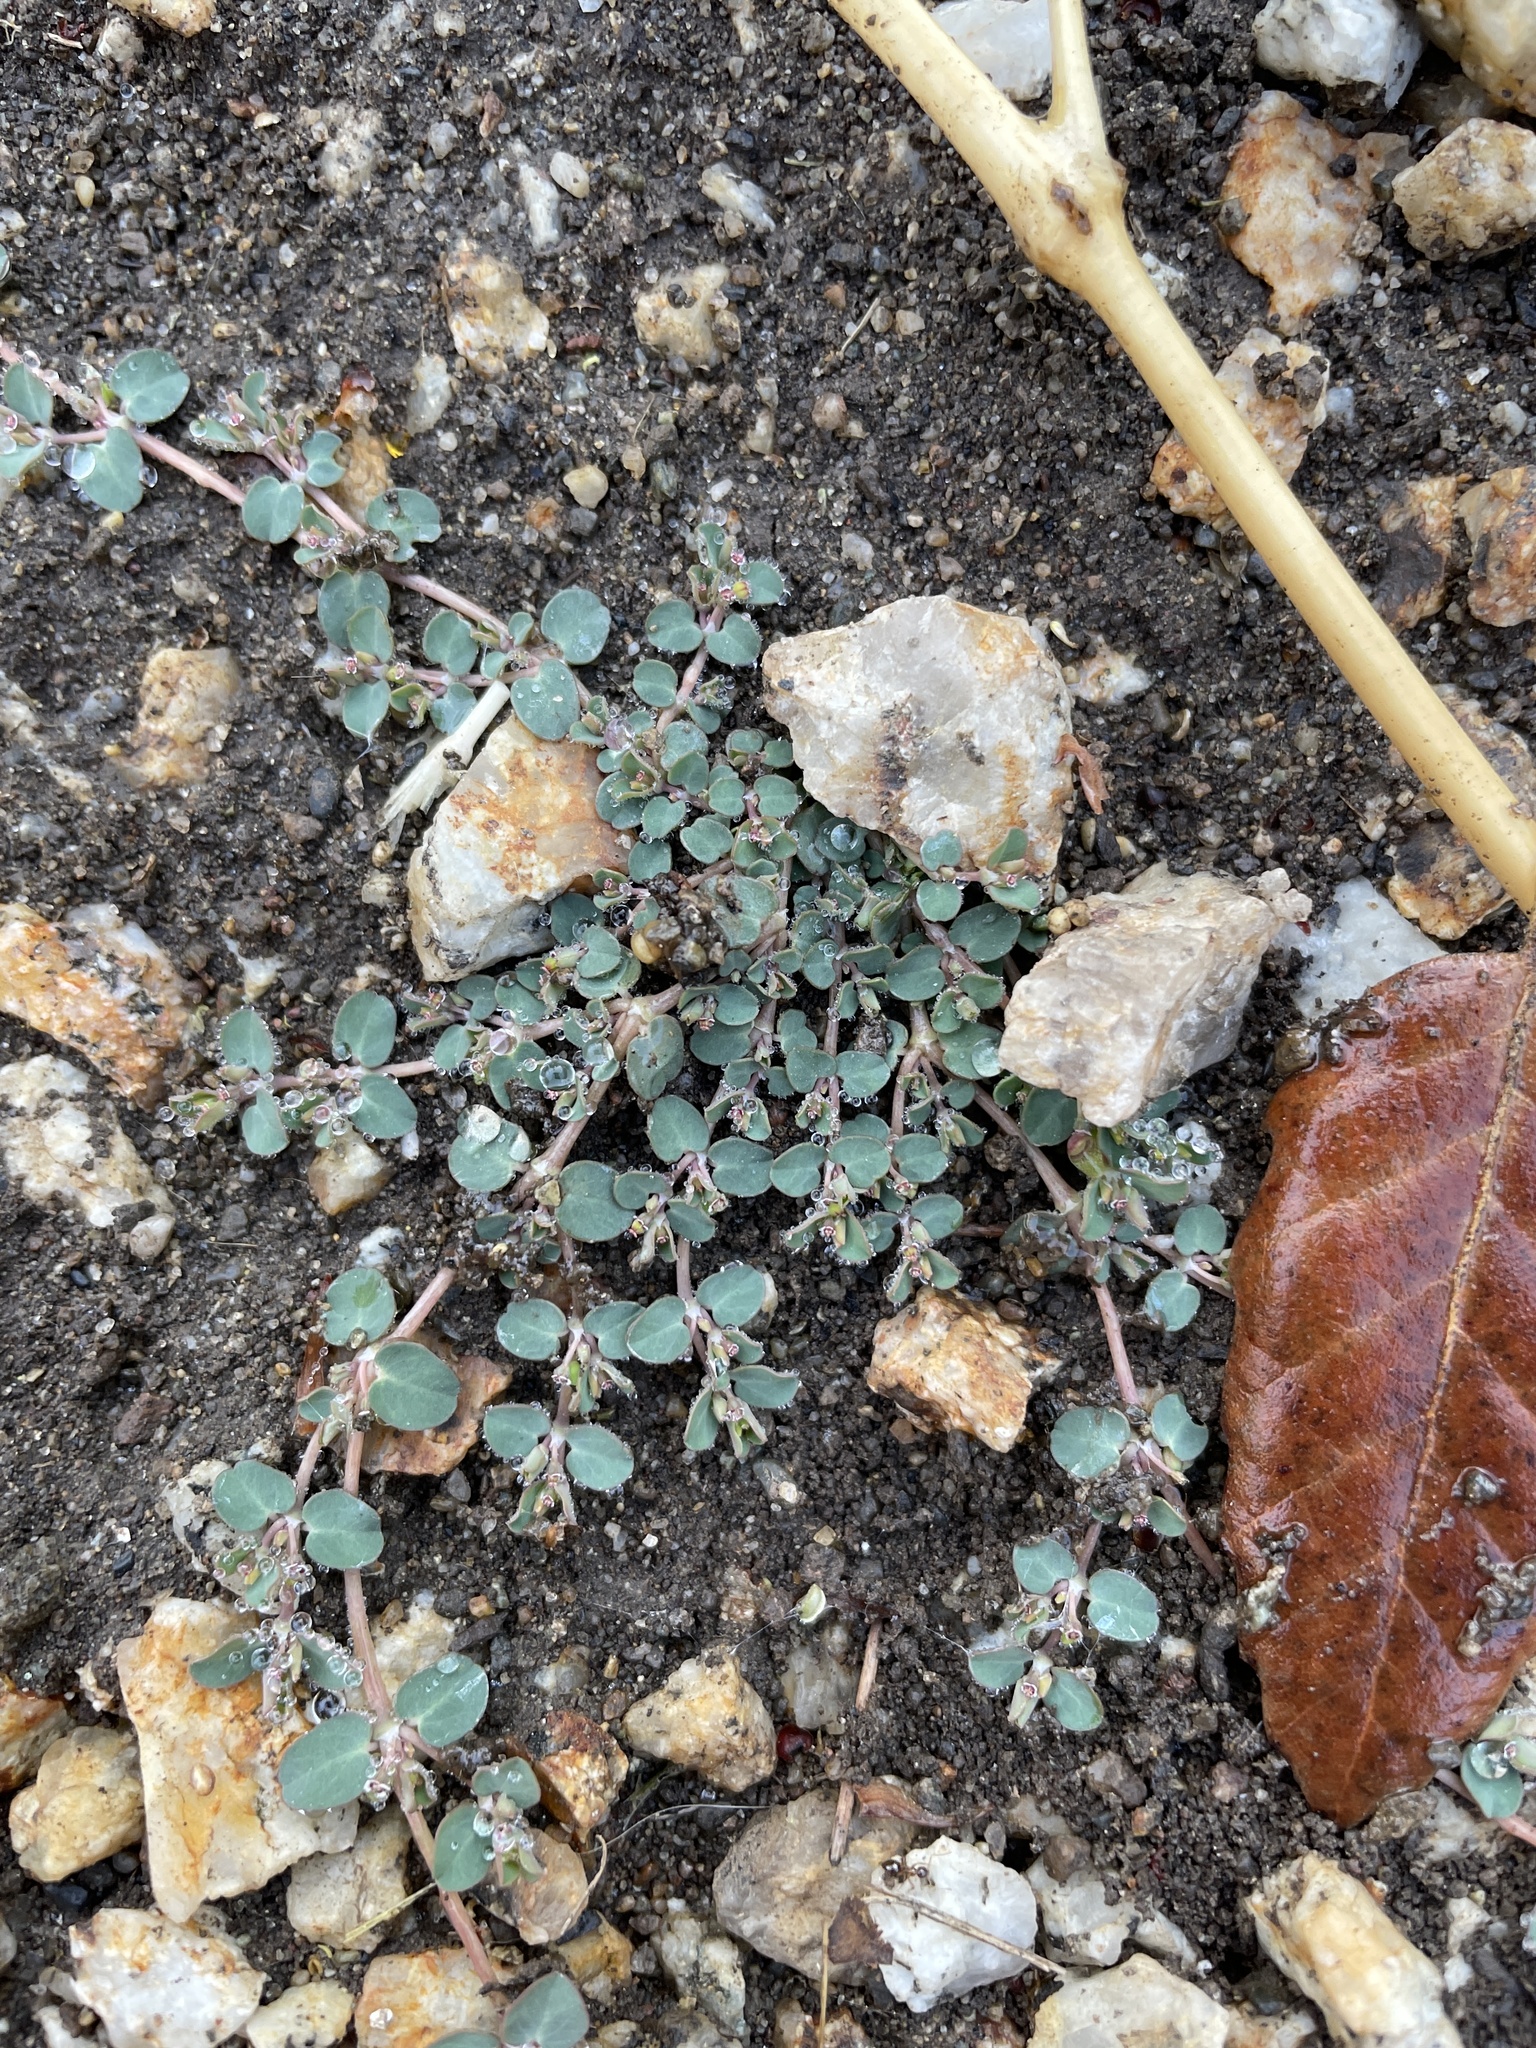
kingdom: Plantae
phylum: Tracheophyta
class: Magnoliopsida
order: Malpighiales
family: Euphorbiaceae
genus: Euphorbia
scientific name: Euphorbia serpens
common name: Matted sandmat
